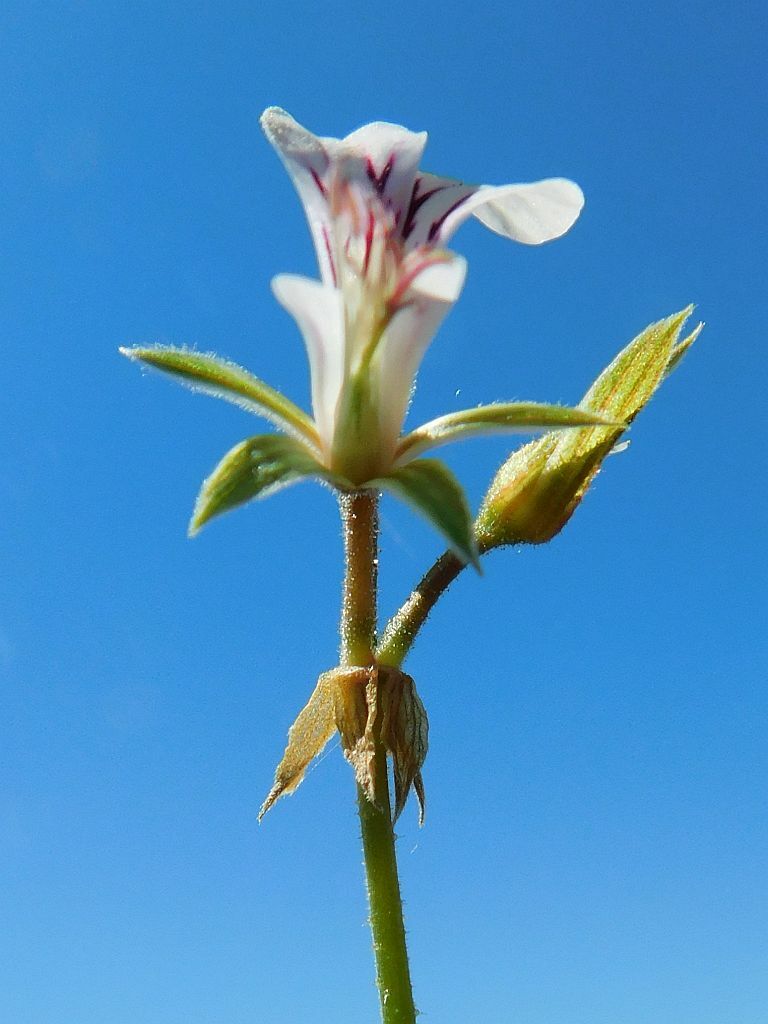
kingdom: Plantae
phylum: Tracheophyta
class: Magnoliopsida
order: Geraniales
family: Geraniaceae
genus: Pelargonium
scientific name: Pelargonium candicans
